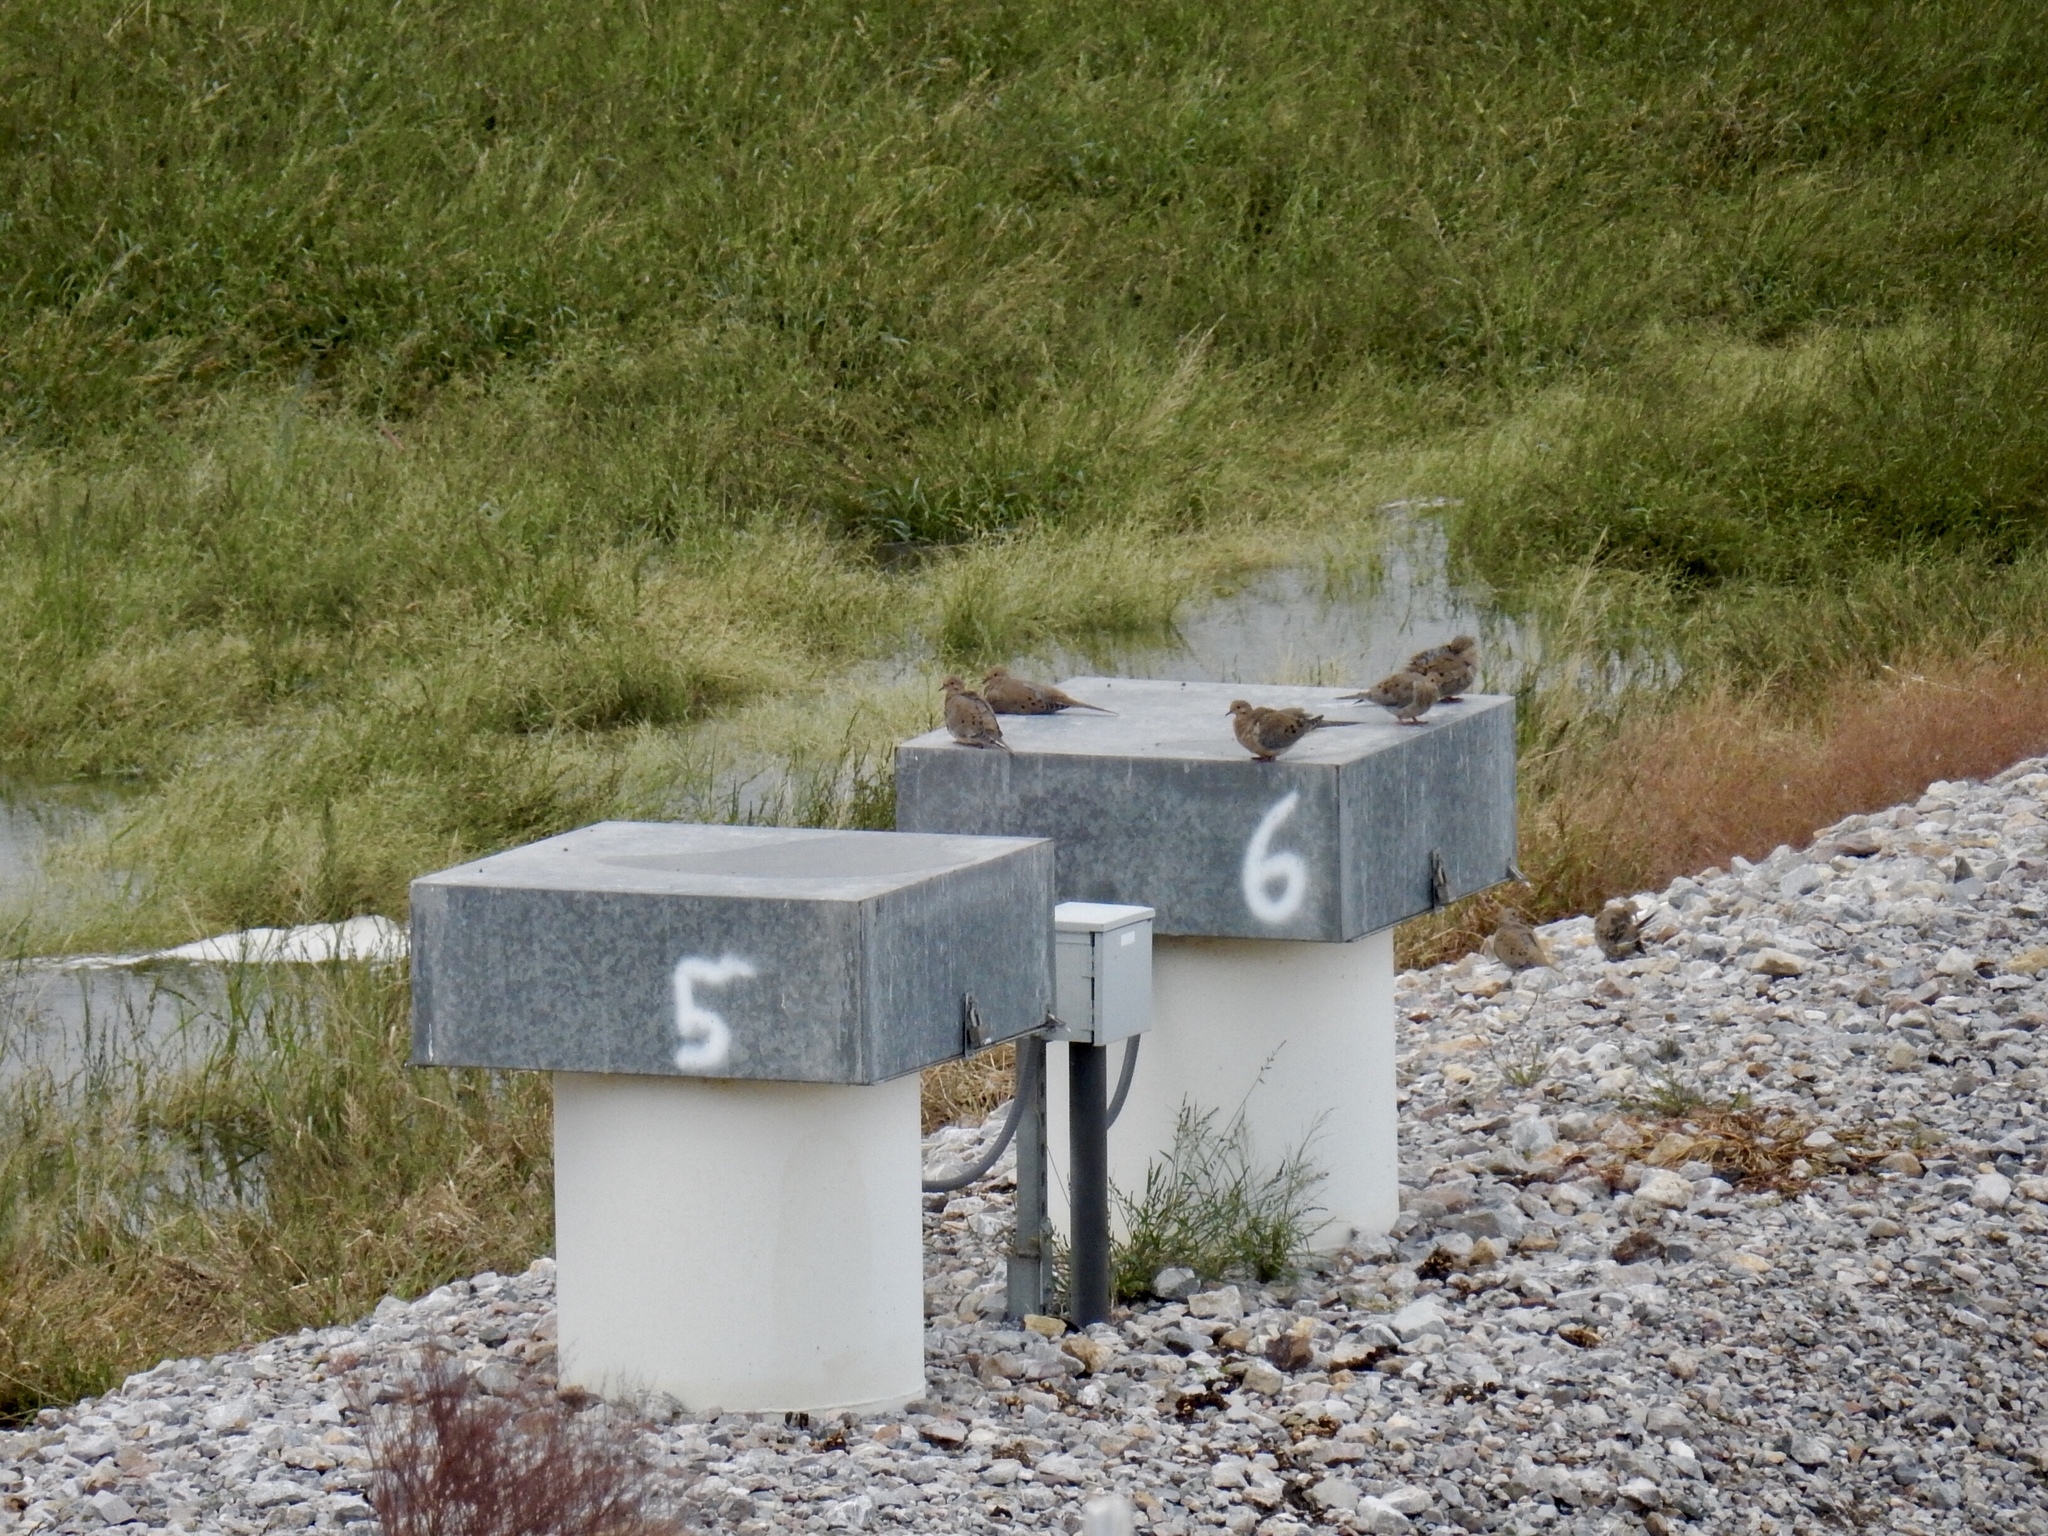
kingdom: Animalia
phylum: Chordata
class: Aves
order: Columbiformes
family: Columbidae
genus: Zenaida
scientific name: Zenaida macroura
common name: Mourning dove
